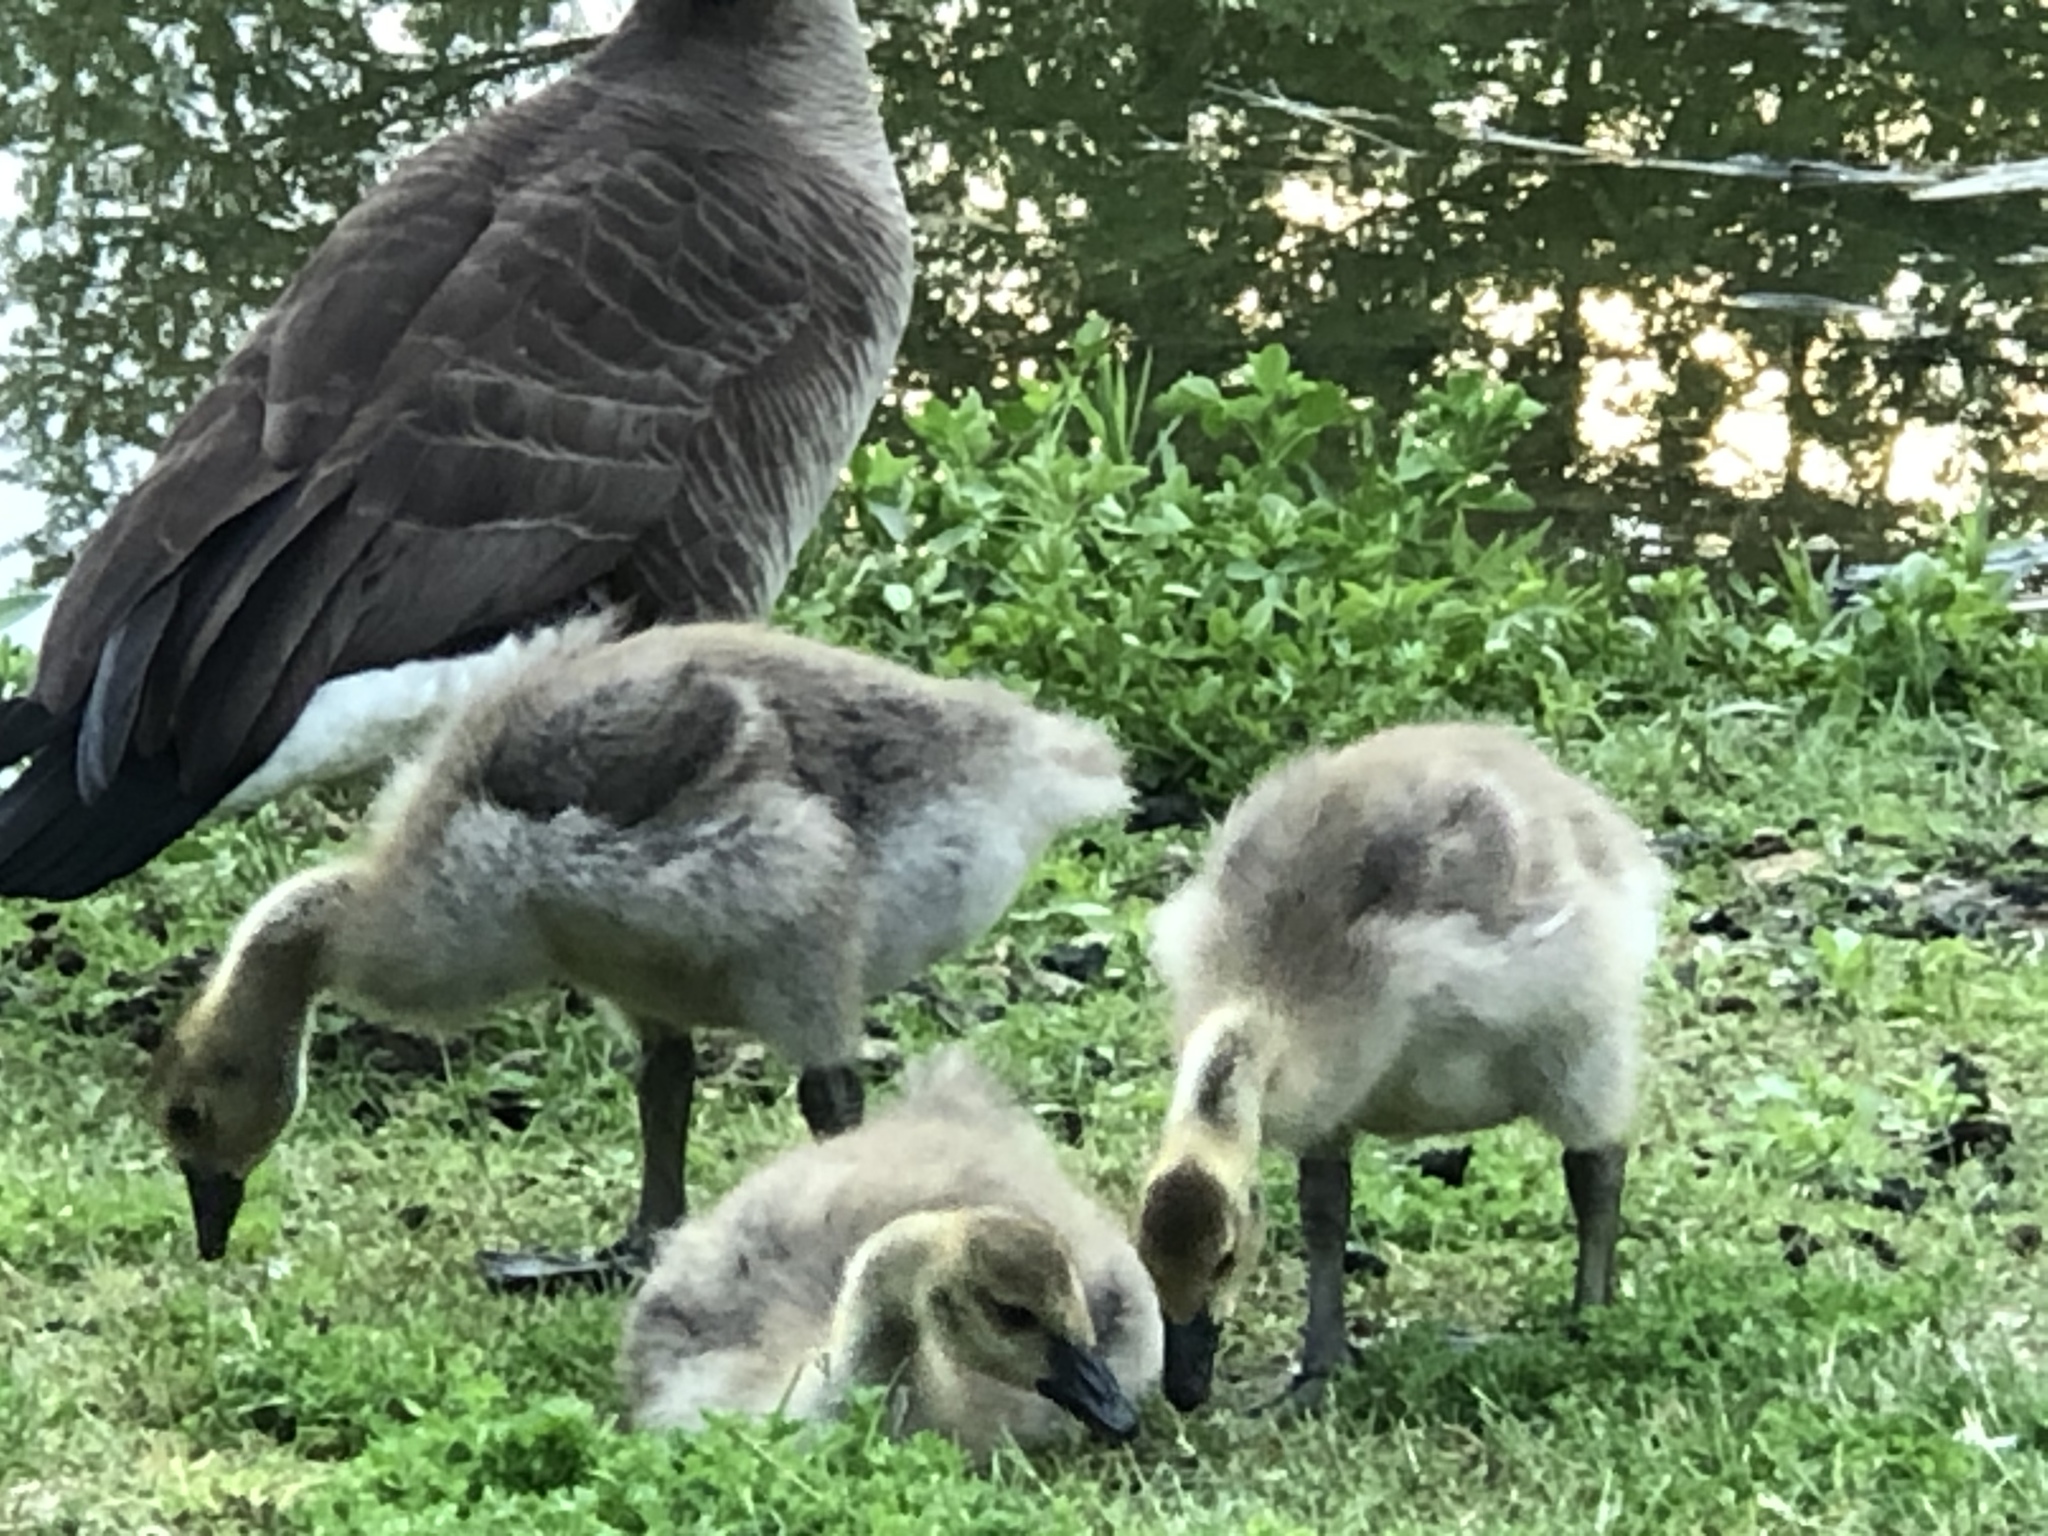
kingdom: Animalia
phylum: Chordata
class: Aves
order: Anseriformes
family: Anatidae
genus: Branta
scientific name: Branta canadensis
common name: Canada goose
